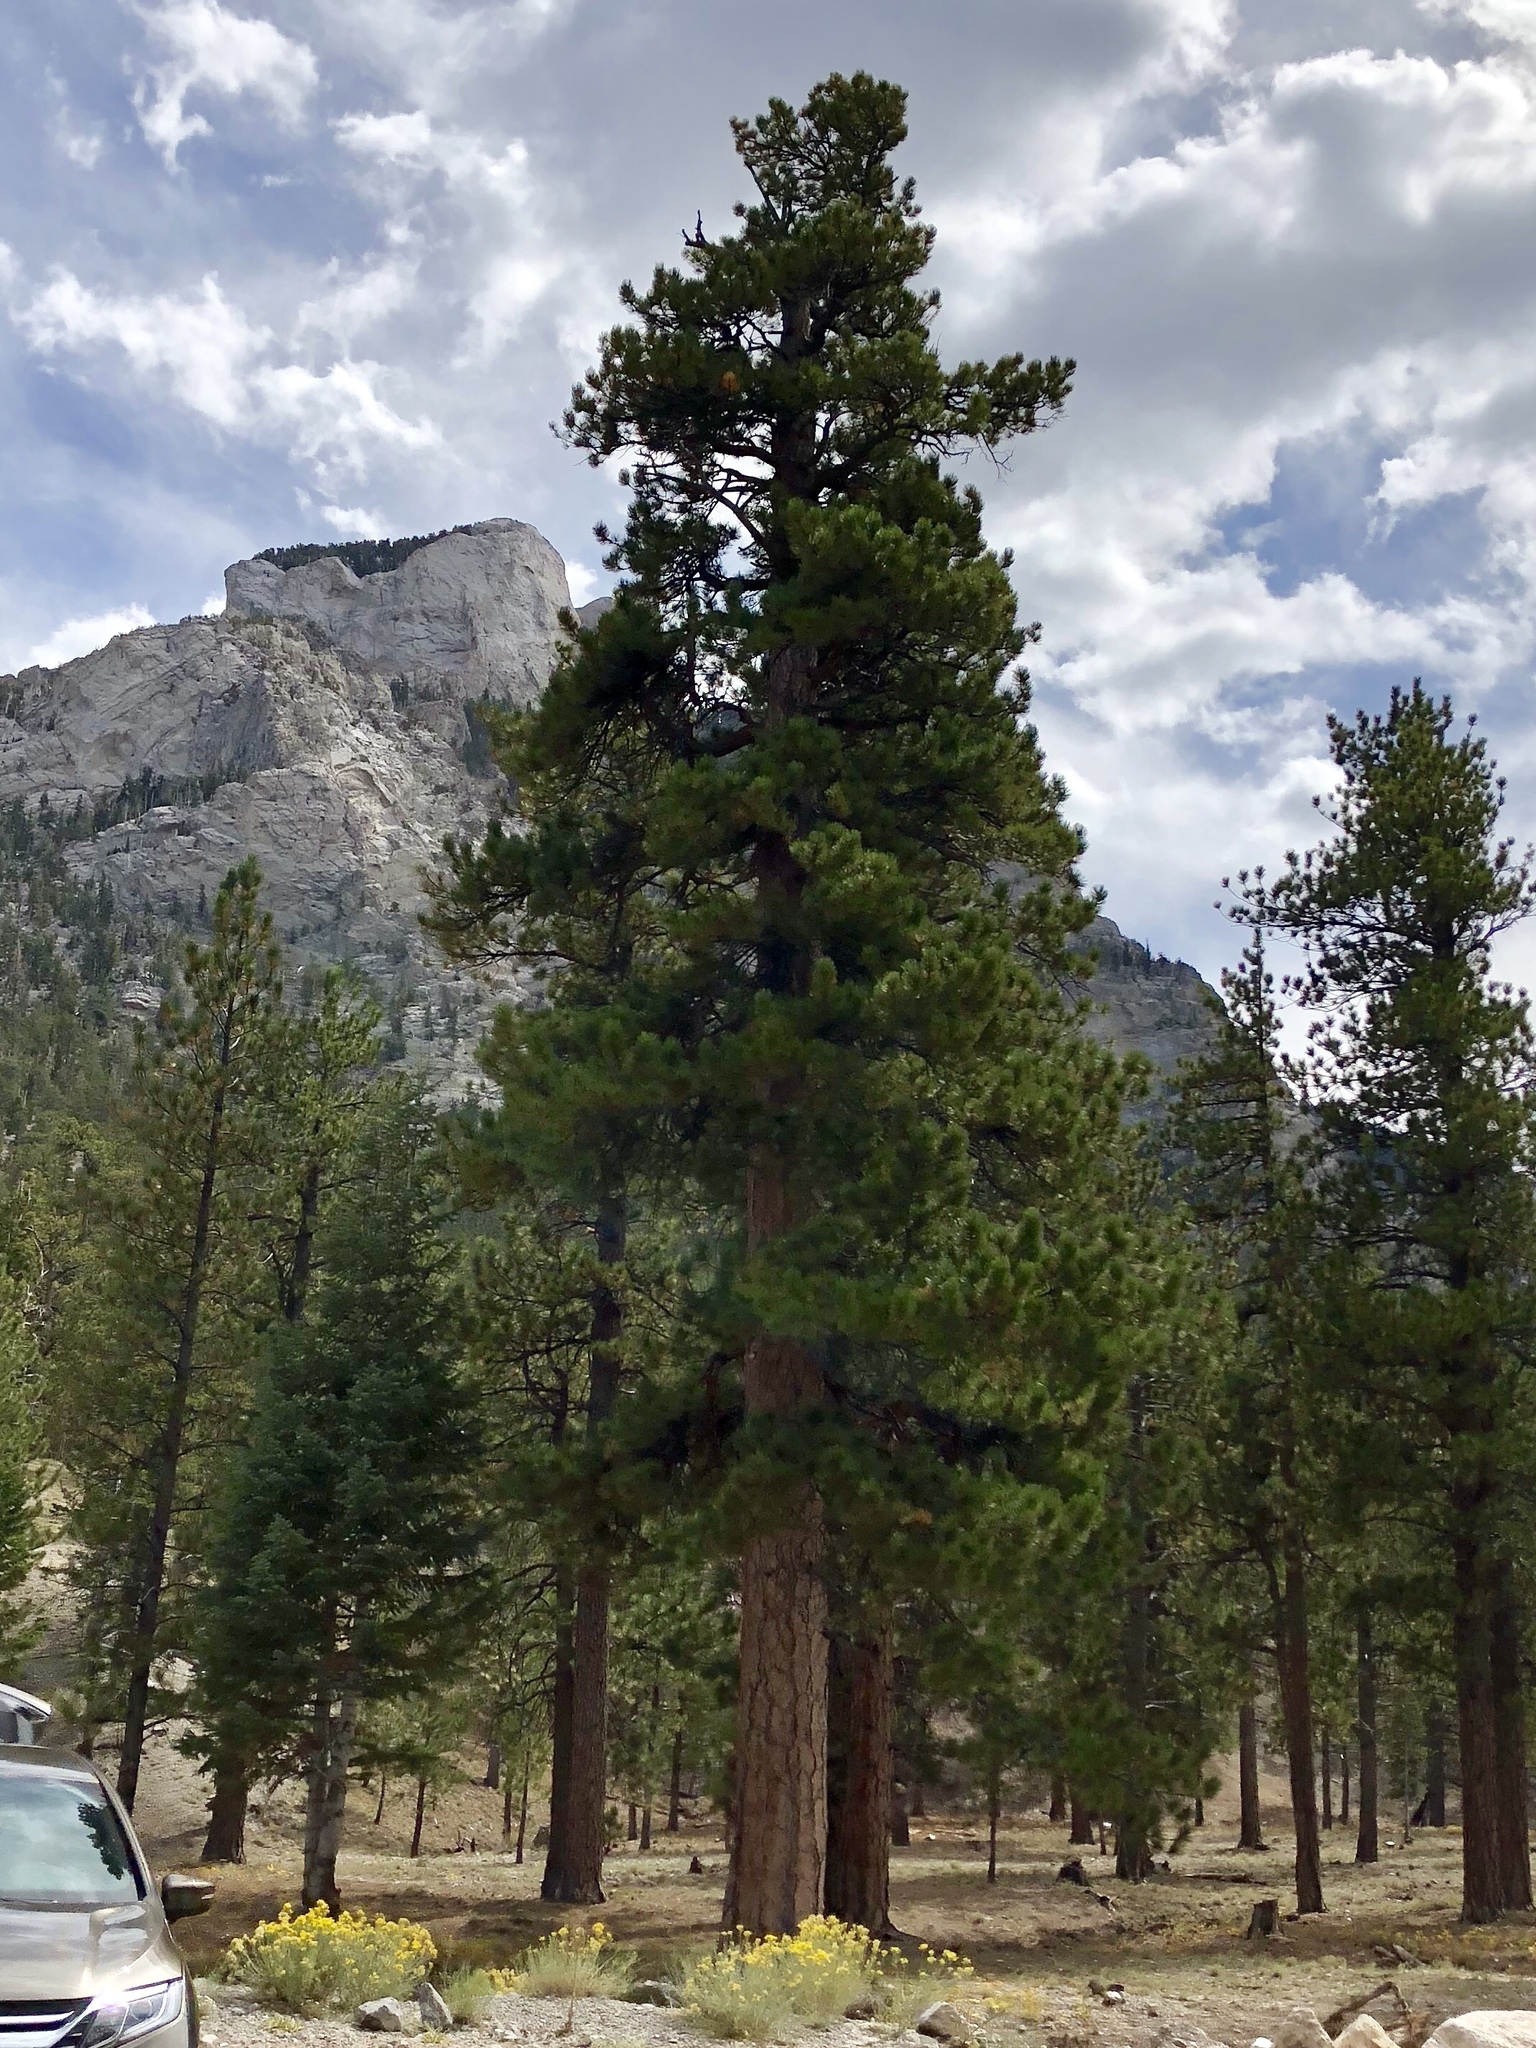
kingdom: Plantae
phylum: Tracheophyta
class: Pinopsida
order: Pinales
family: Pinaceae
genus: Pinus
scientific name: Pinus ponderosa
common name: Western yellow-pine
